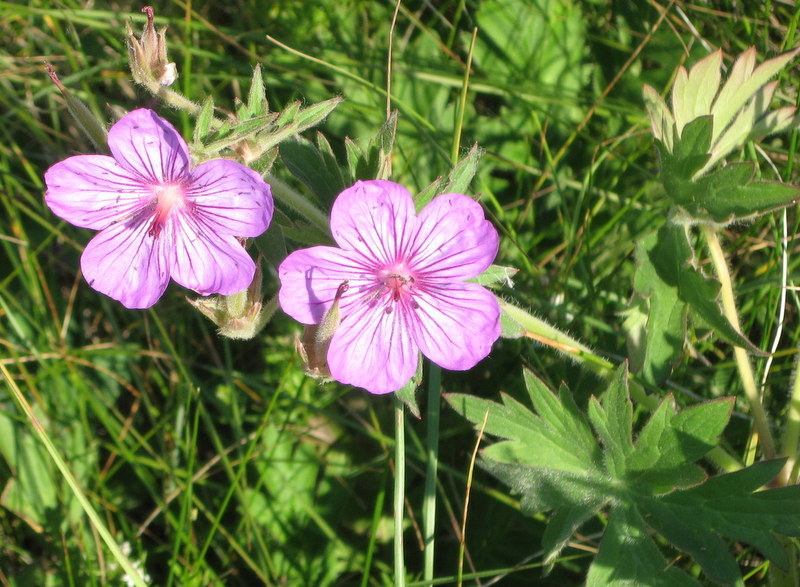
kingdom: Plantae
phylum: Tracheophyta
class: Magnoliopsida
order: Geraniales
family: Geraniaceae
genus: Geranium
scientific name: Geranium viscosissimum
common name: Purple geranium
